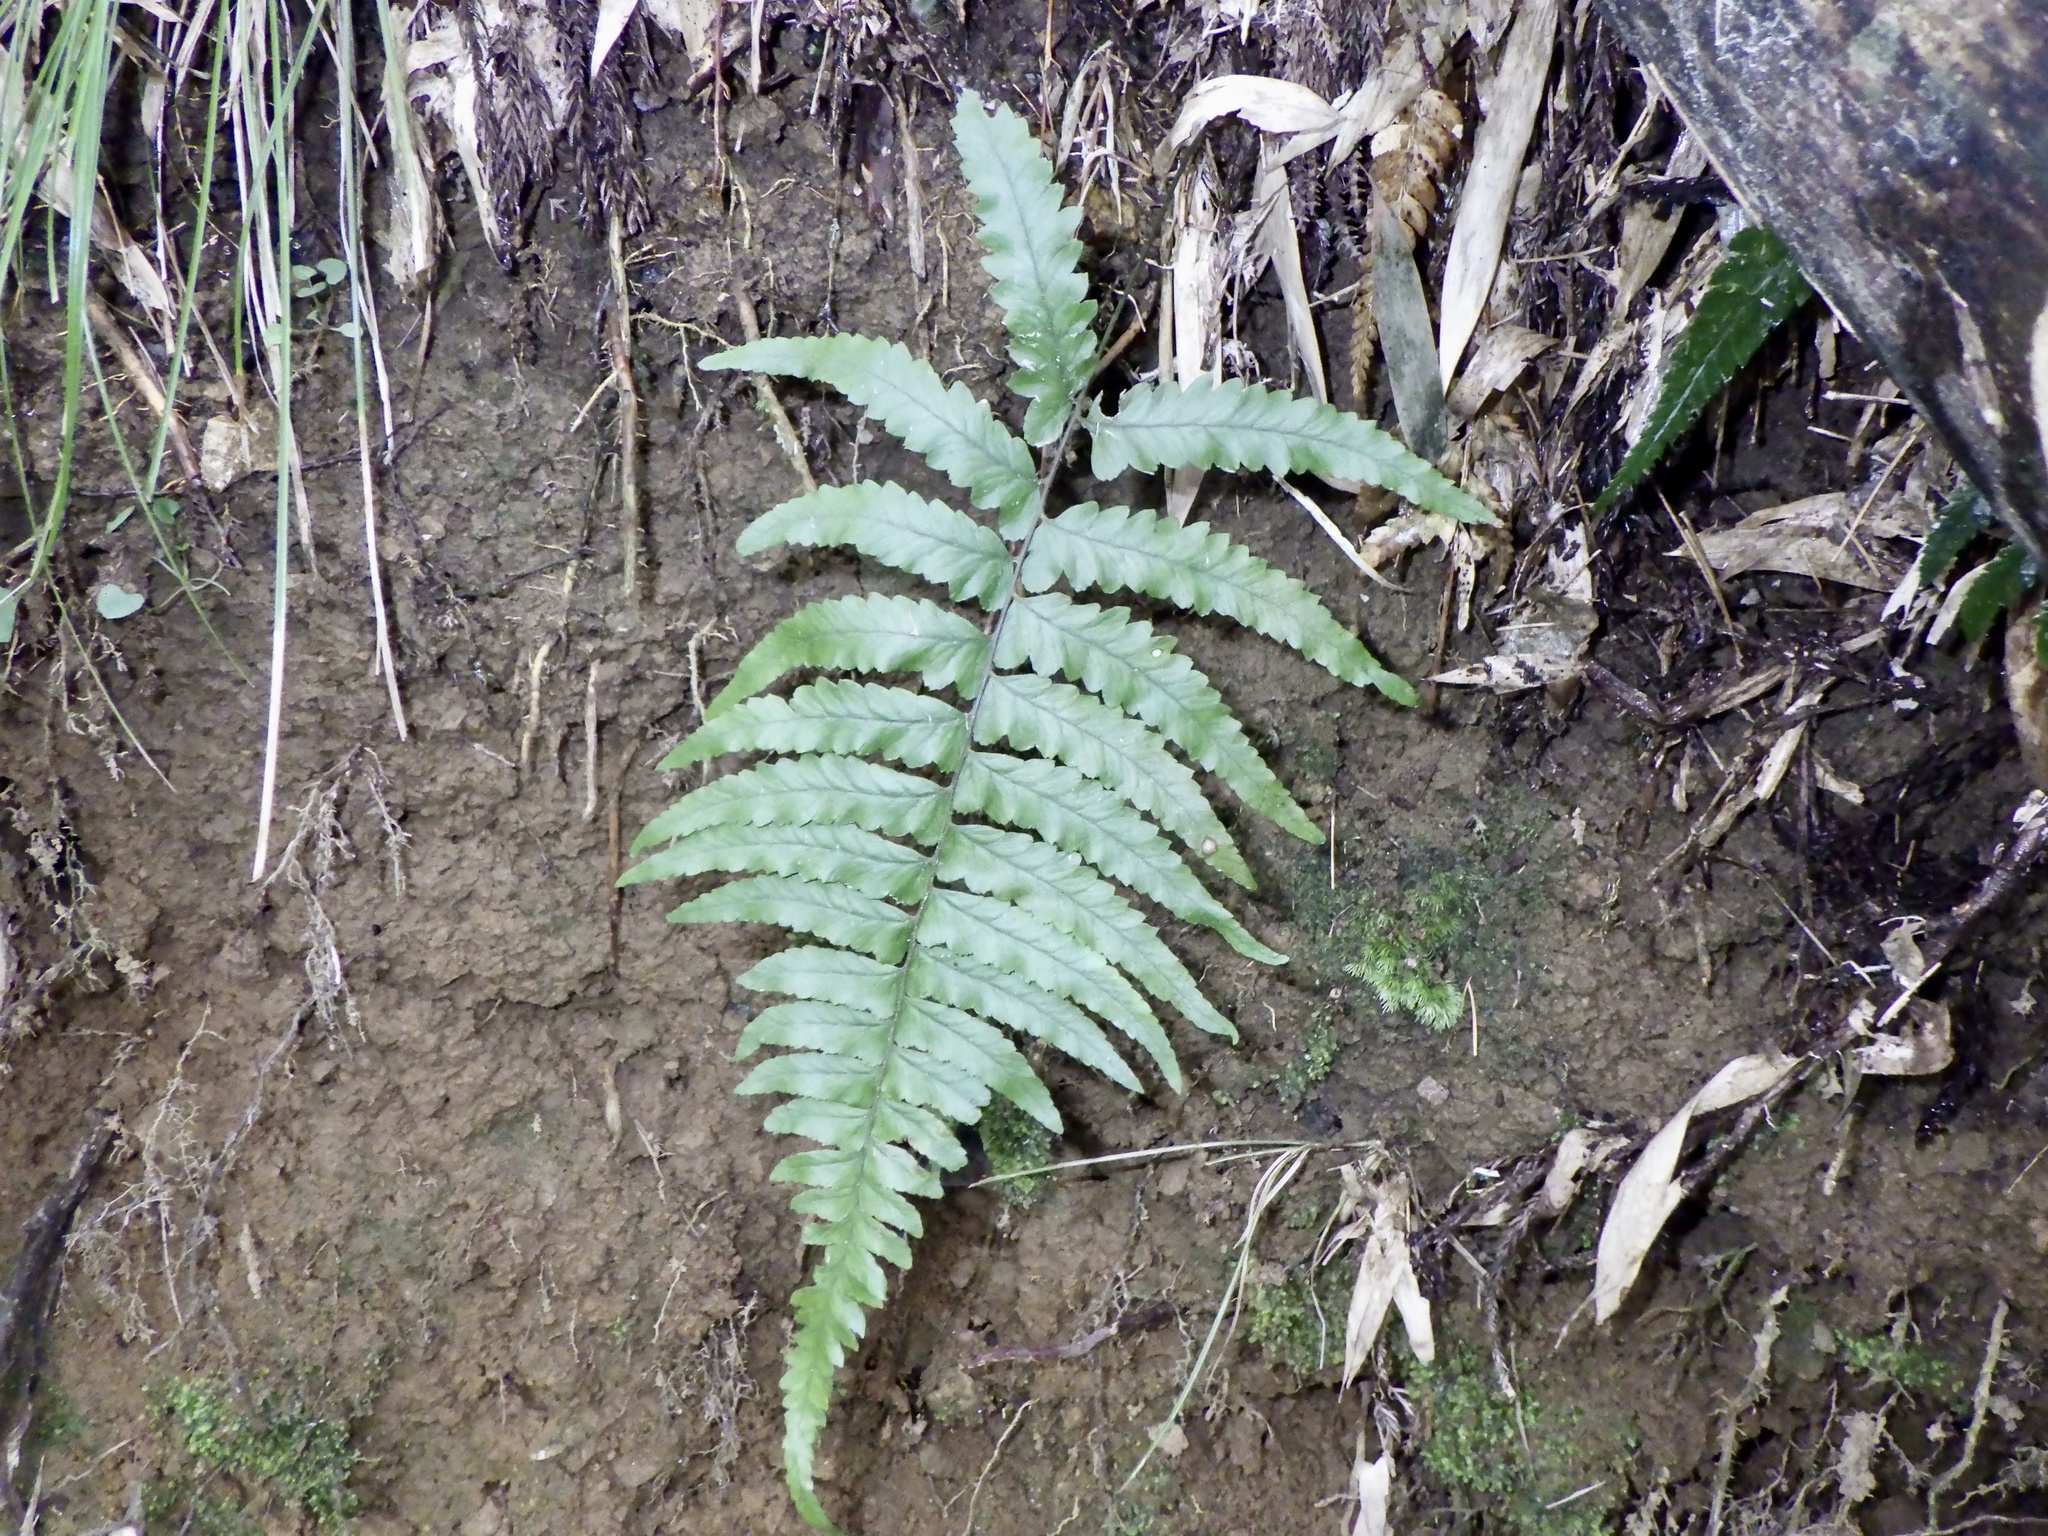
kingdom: Plantae
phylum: Tracheophyta
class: Polypodiopsida
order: Polypodiales
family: Dennstaedtiaceae
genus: Microlepia
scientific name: Microlepia marginata
